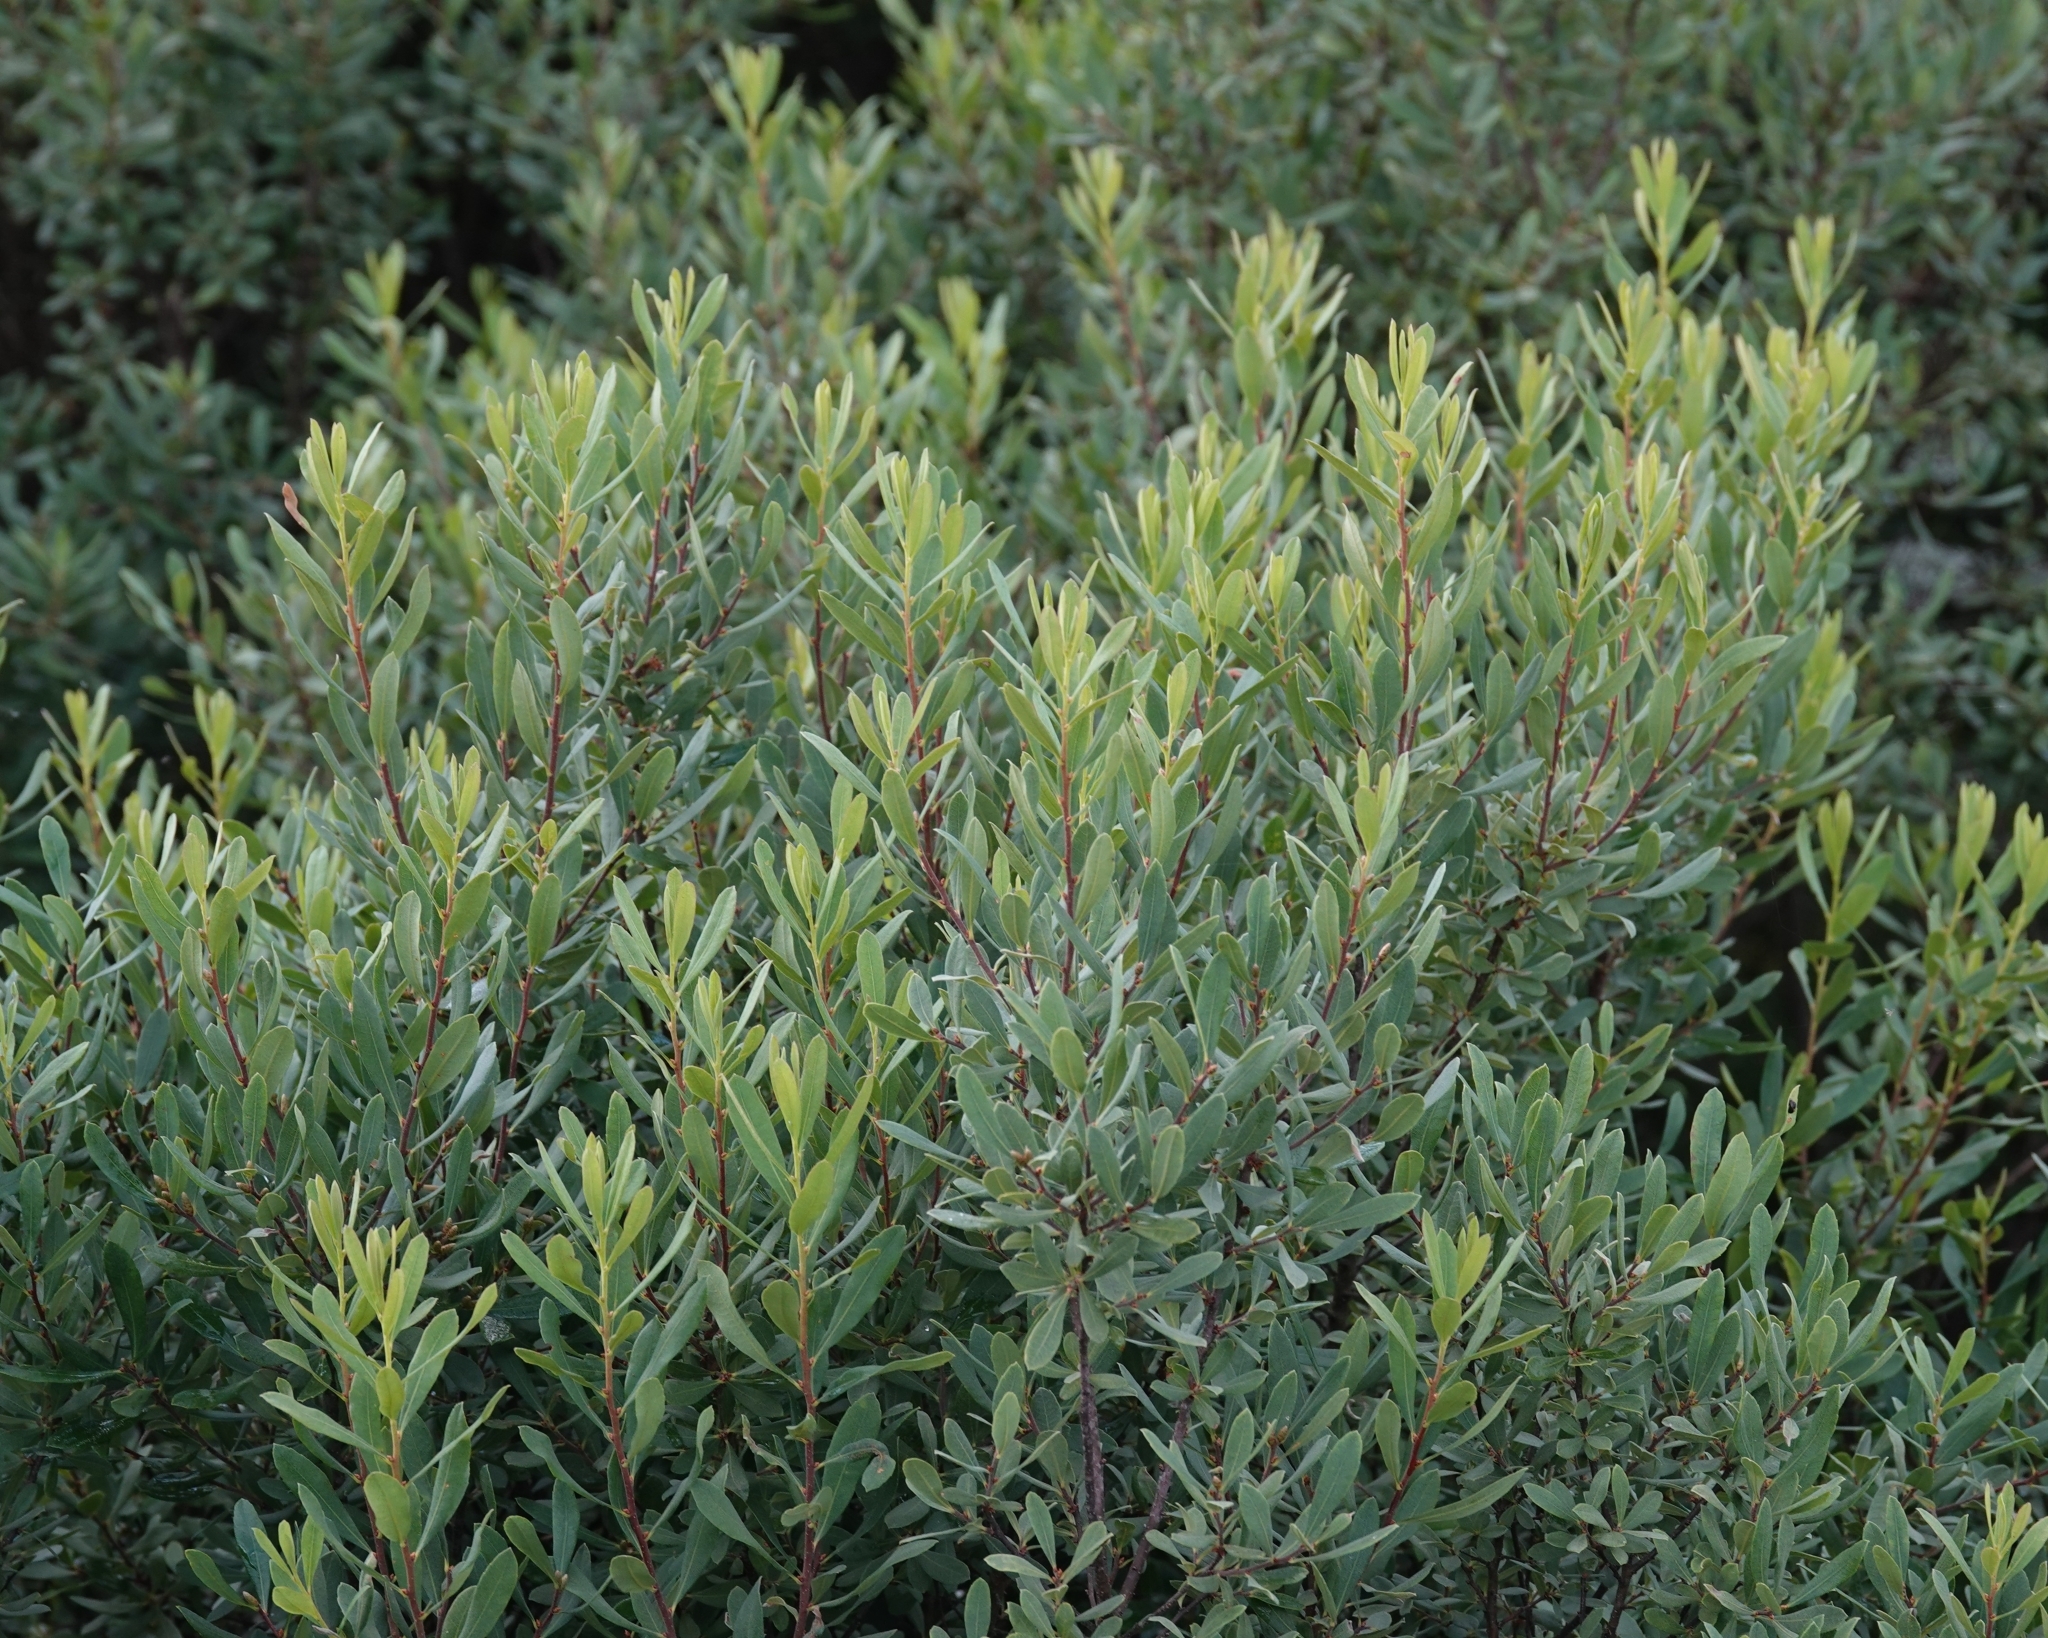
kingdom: Plantae
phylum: Tracheophyta
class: Magnoliopsida
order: Fagales
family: Myricaceae
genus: Myrica
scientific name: Myrica gale
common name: Sweet gale
